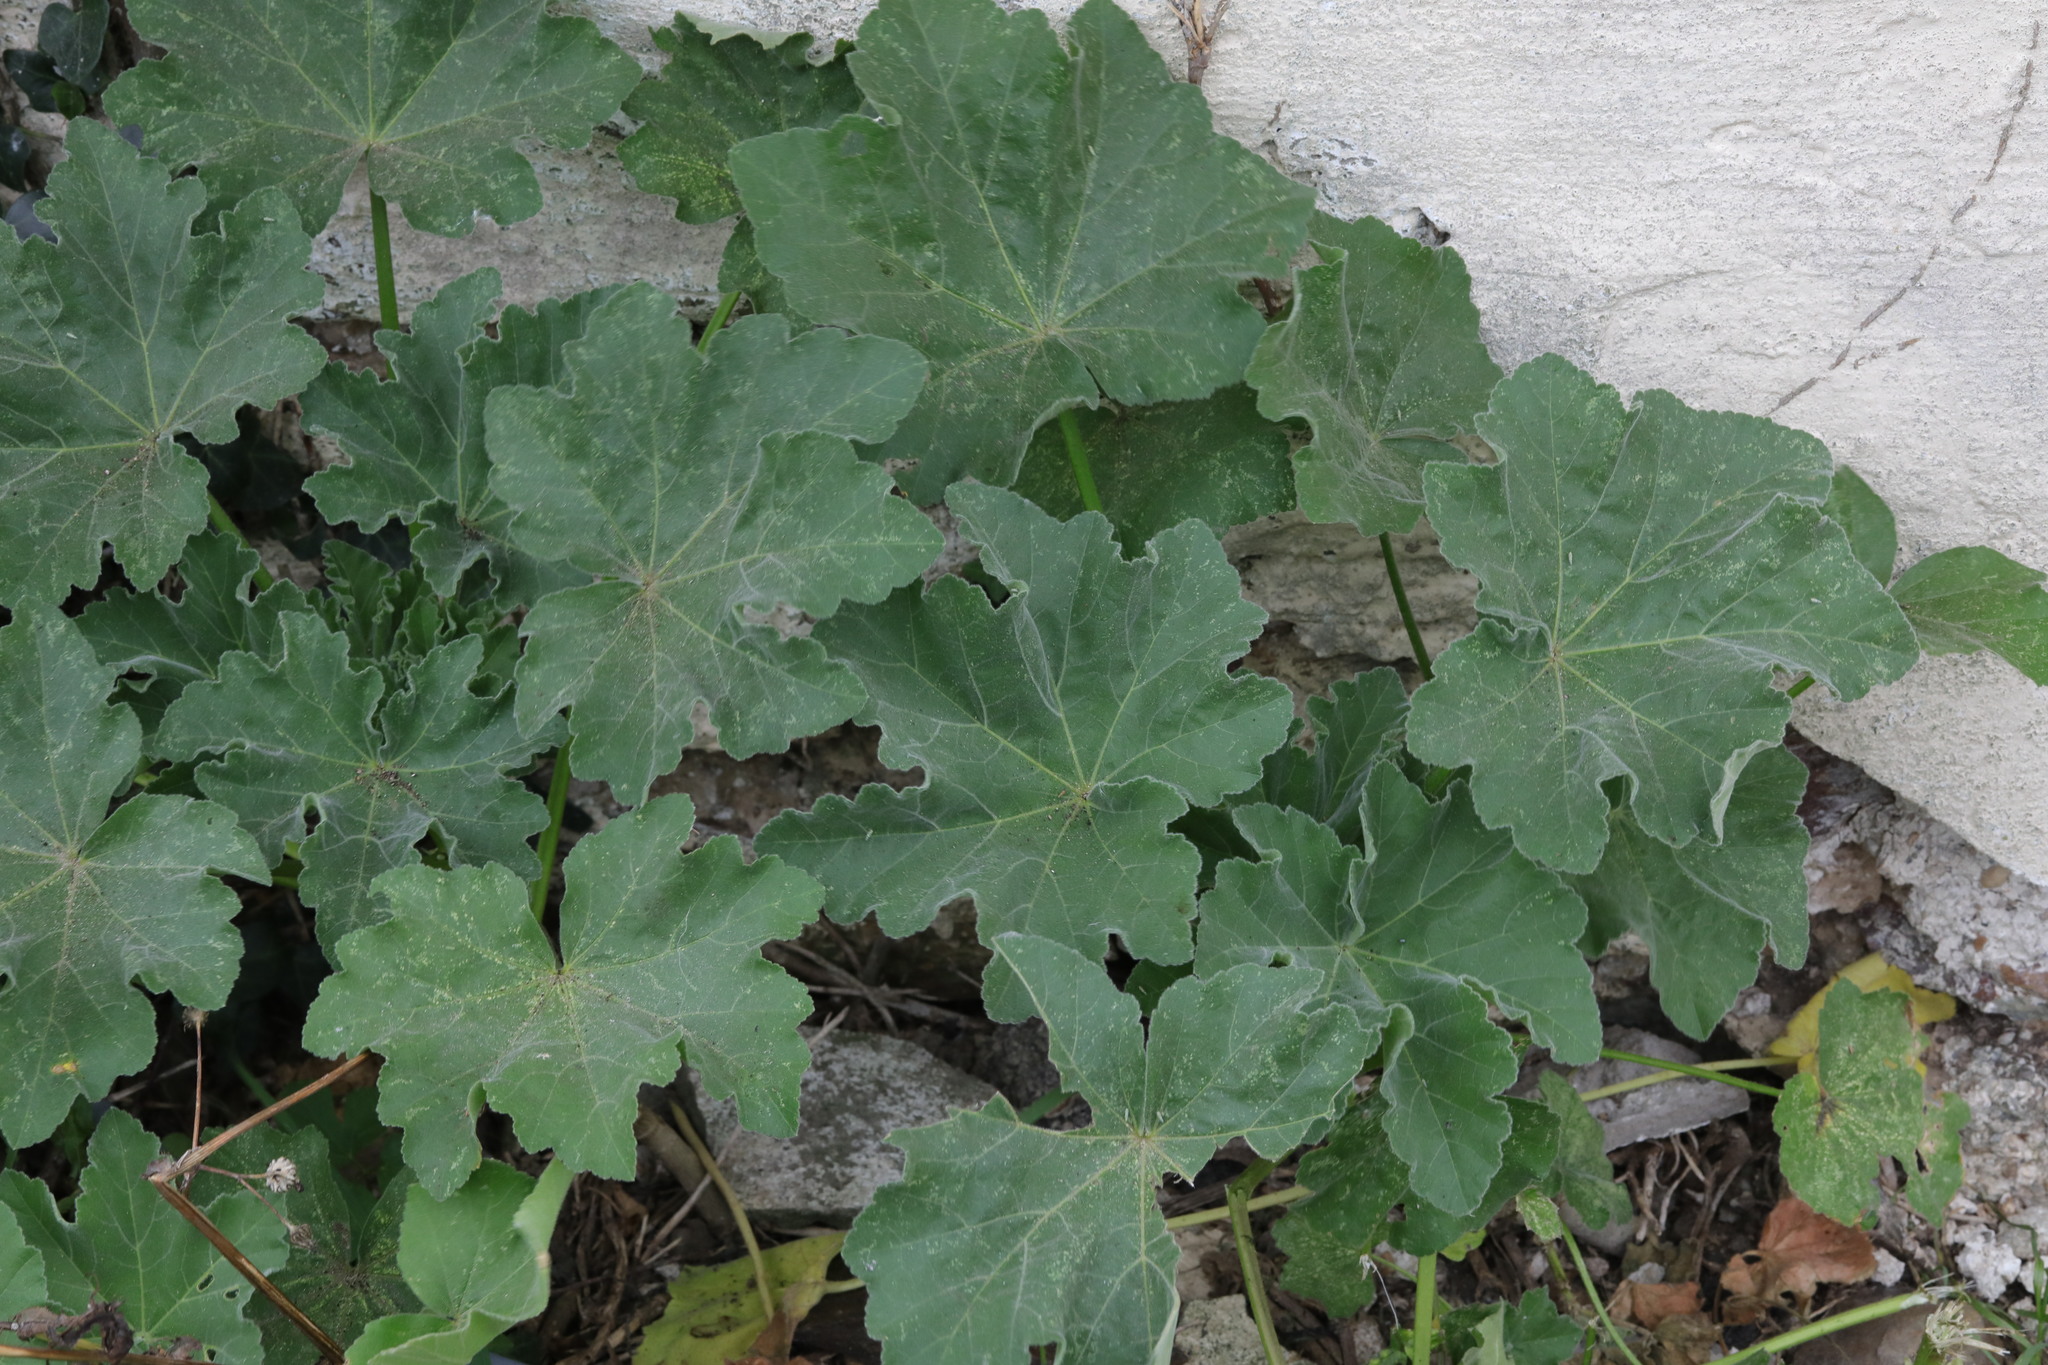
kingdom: Plantae
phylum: Tracheophyta
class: Magnoliopsida
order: Malvales
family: Malvaceae
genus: Malva
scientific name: Malva arborea
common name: Tree mallow
